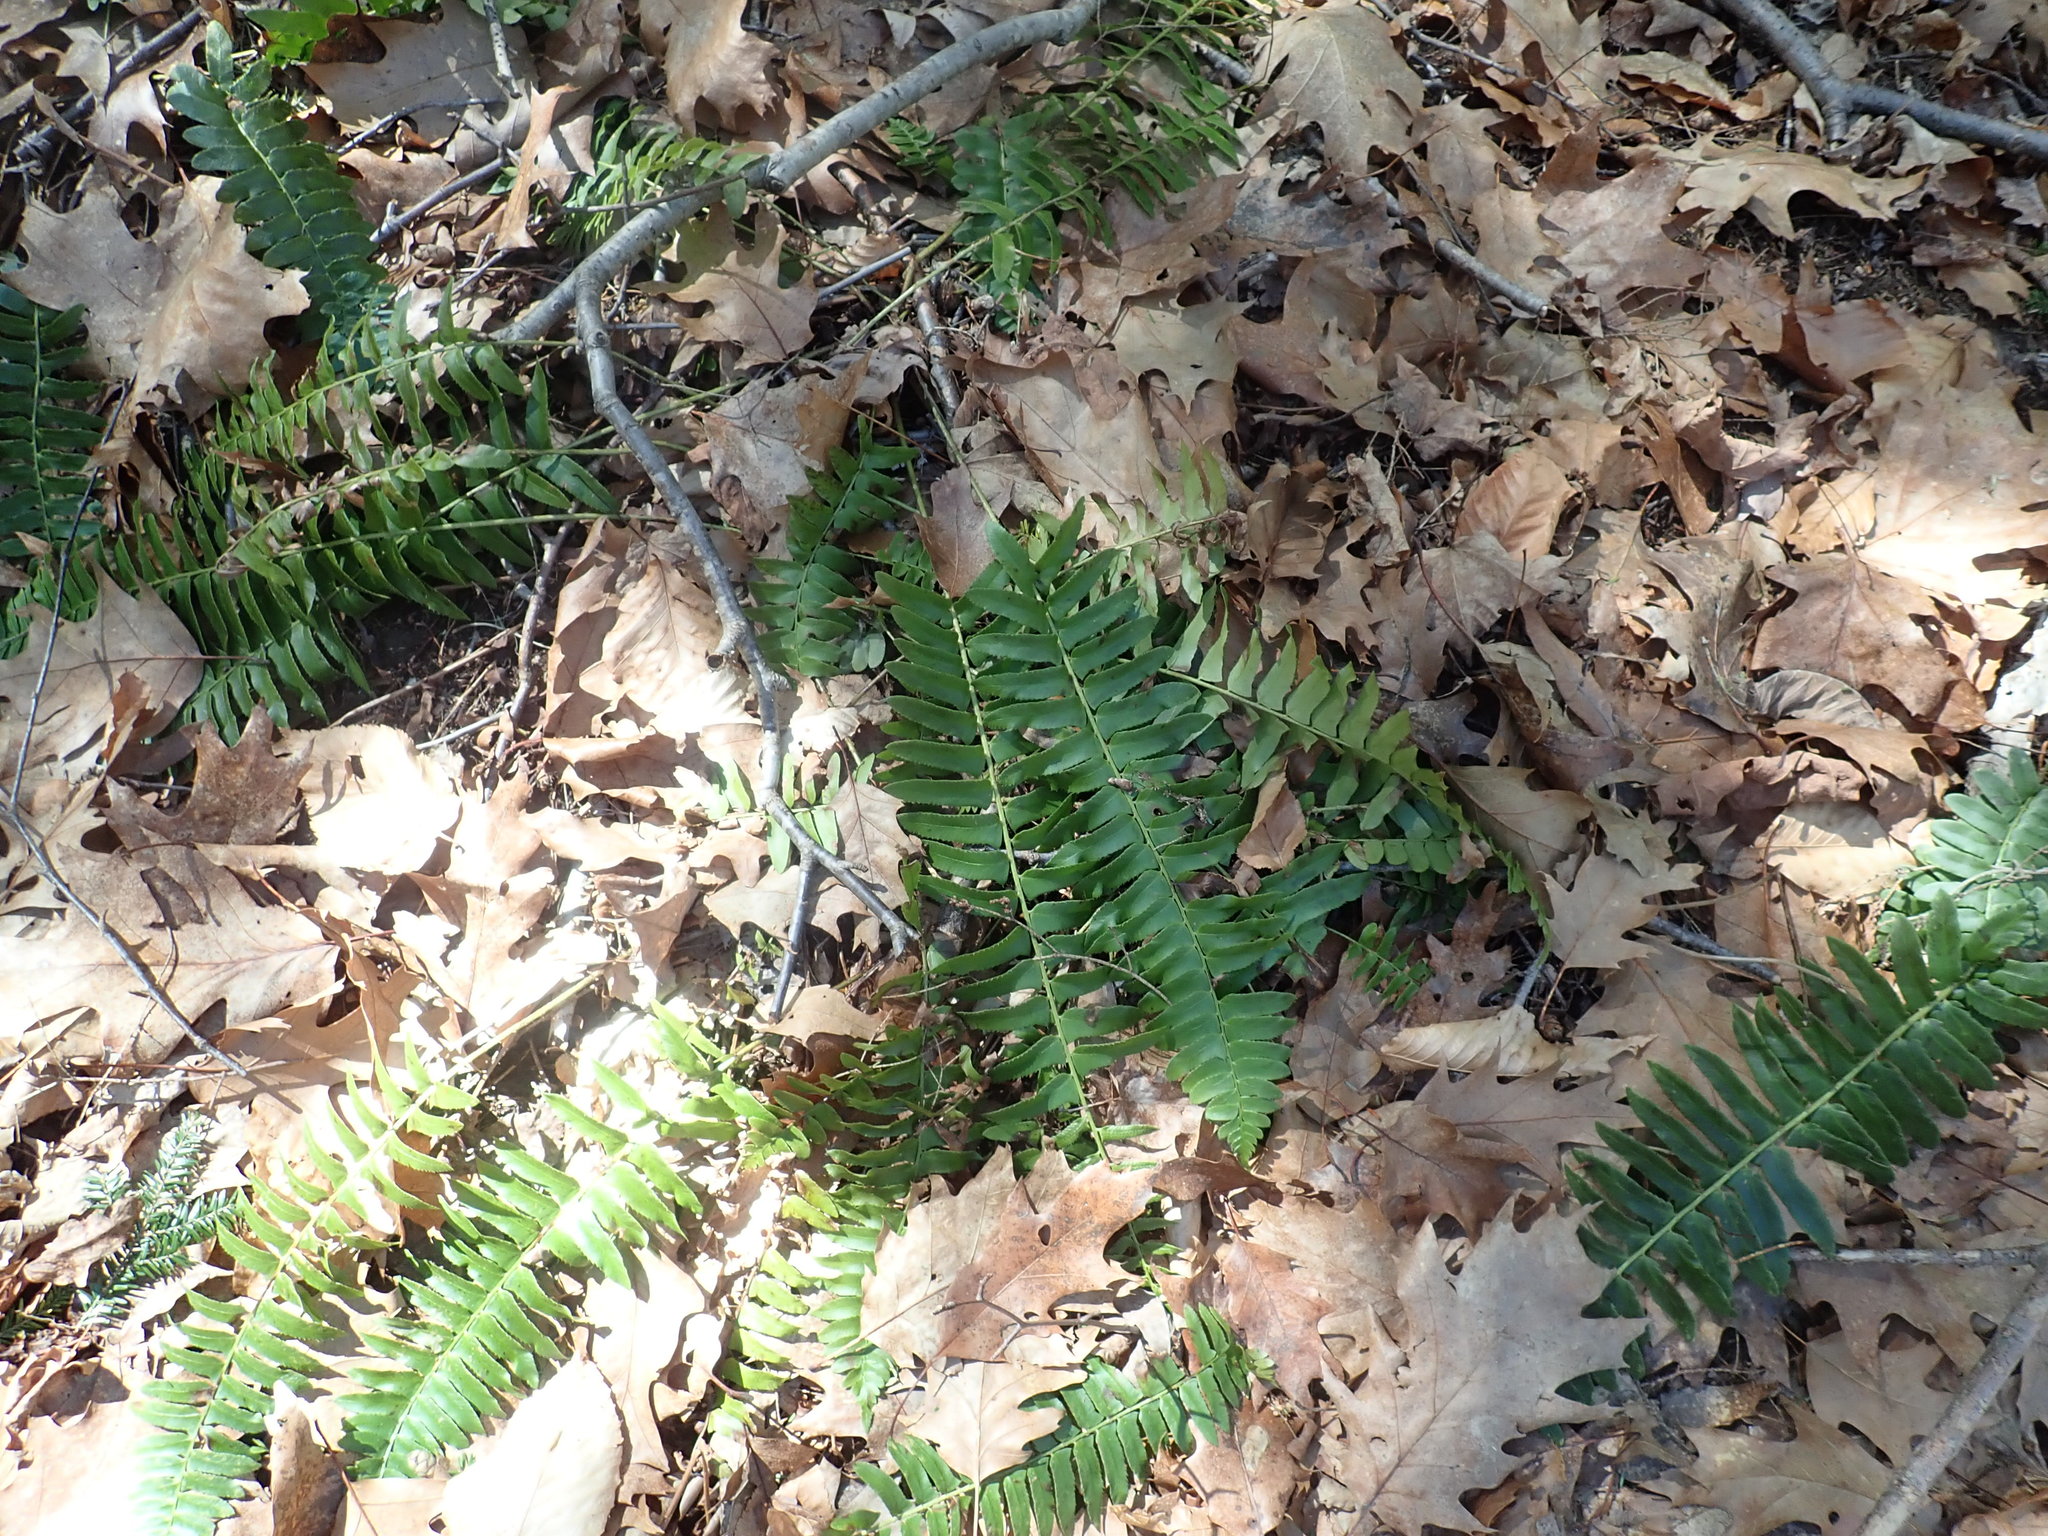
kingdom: Plantae
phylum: Tracheophyta
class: Polypodiopsida
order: Polypodiales
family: Dryopteridaceae
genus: Polystichum
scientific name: Polystichum acrostichoides
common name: Christmas fern
